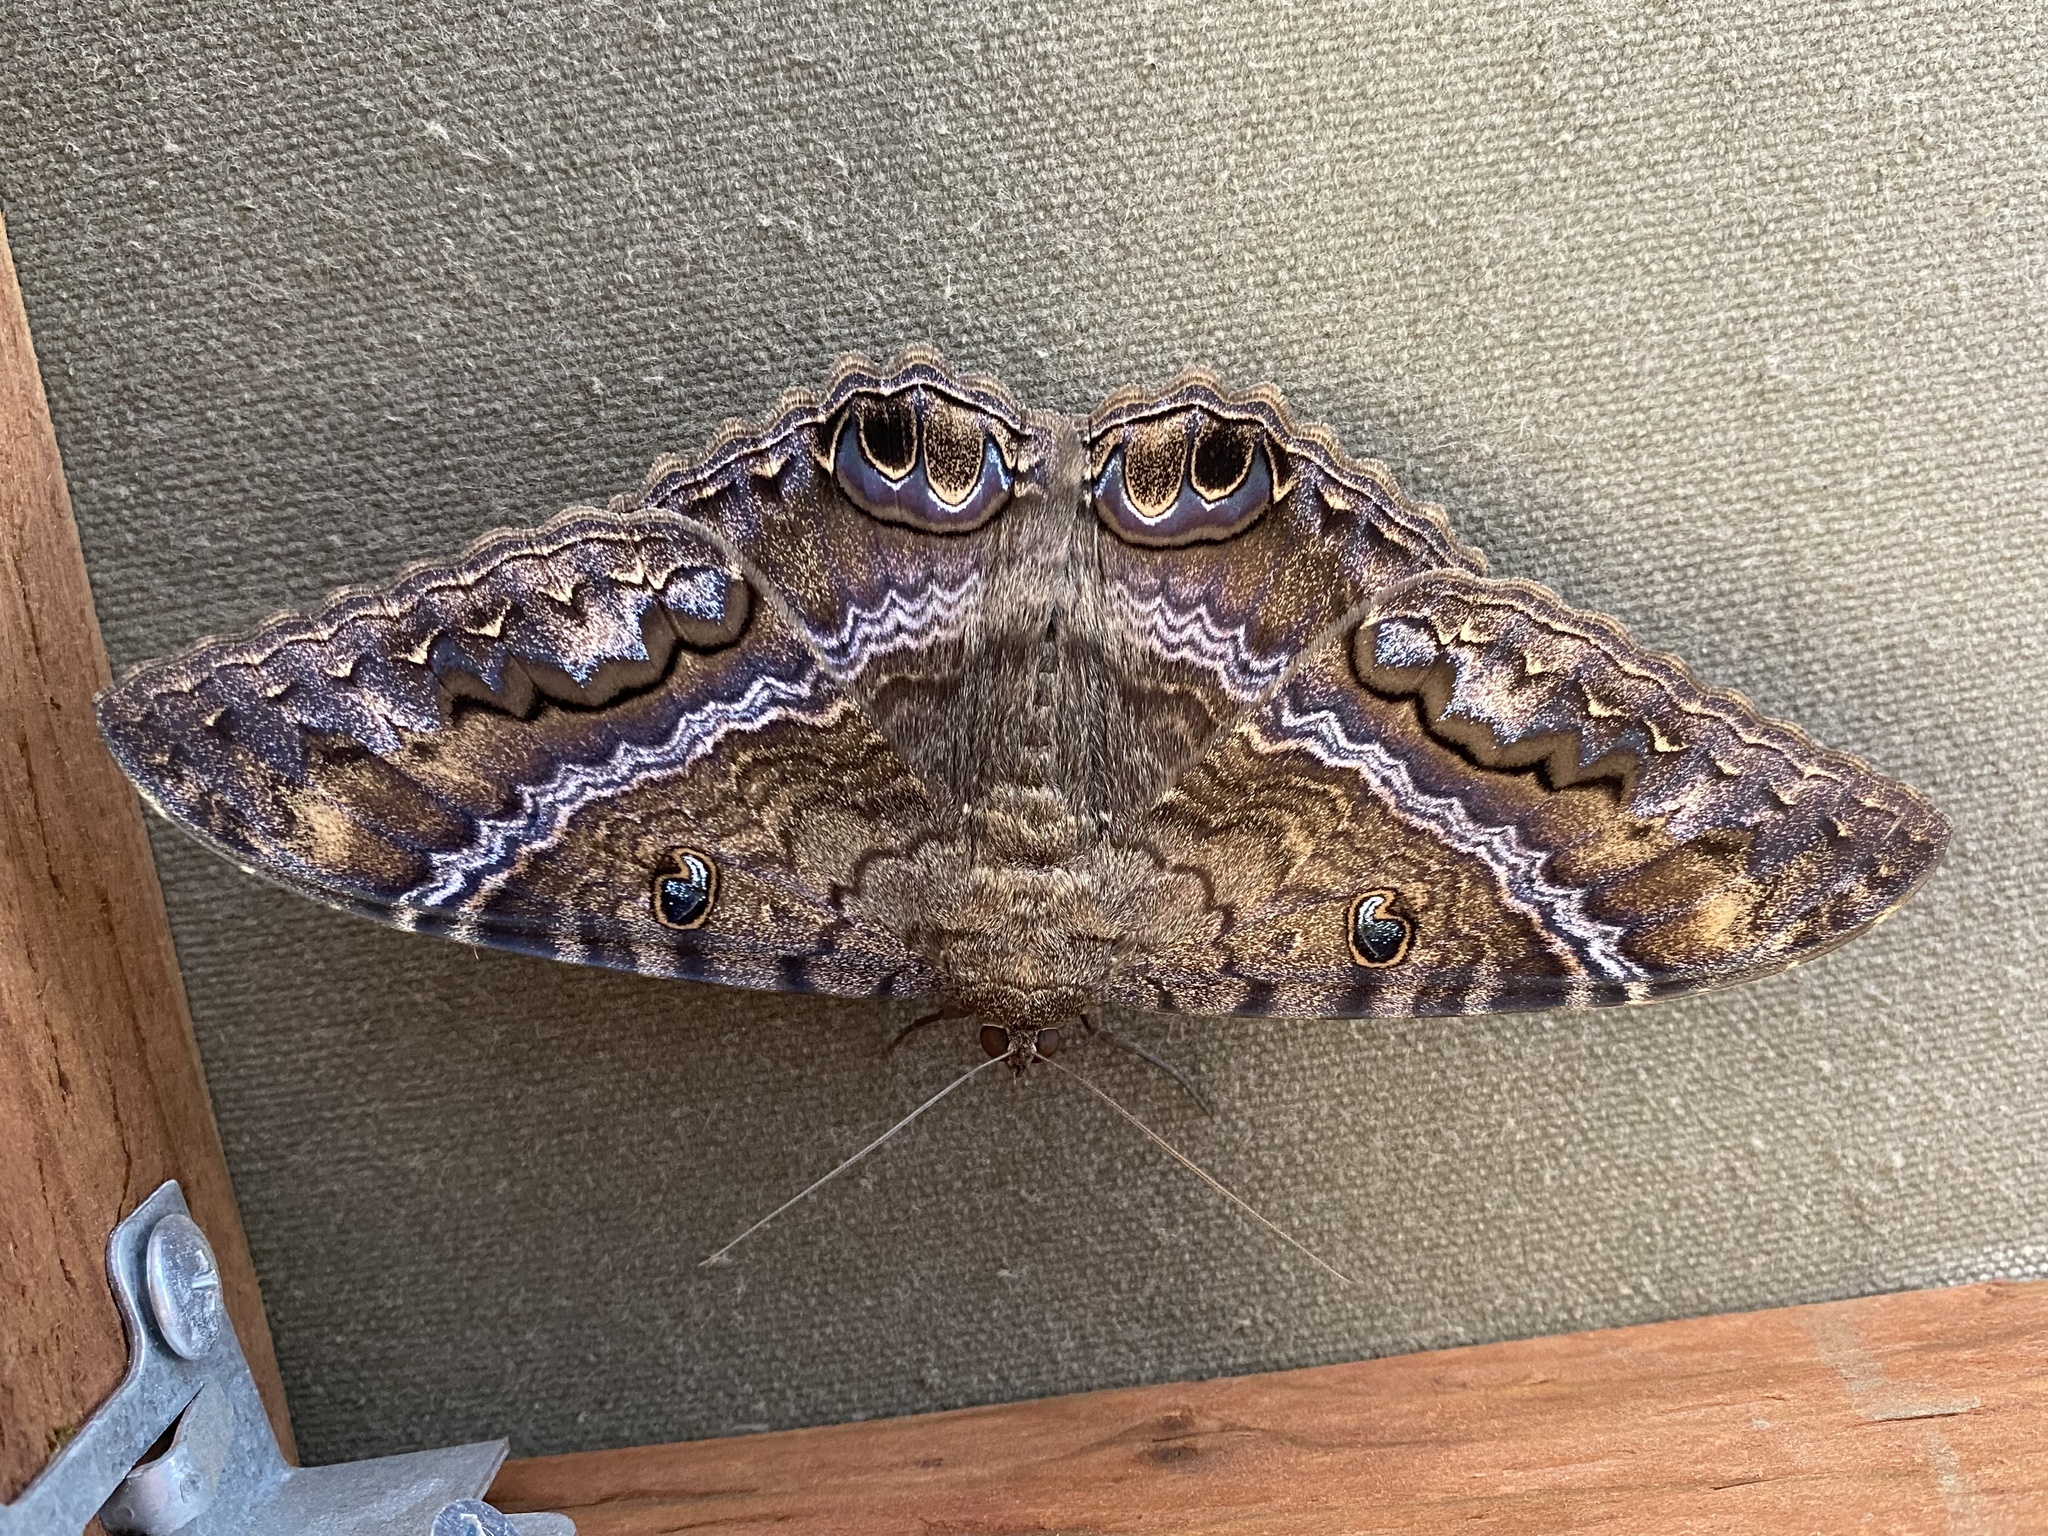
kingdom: Animalia
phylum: Arthropoda
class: Insecta
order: Lepidoptera
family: Erebidae
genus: Ascalapha
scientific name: Ascalapha odorata
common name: Black witch
